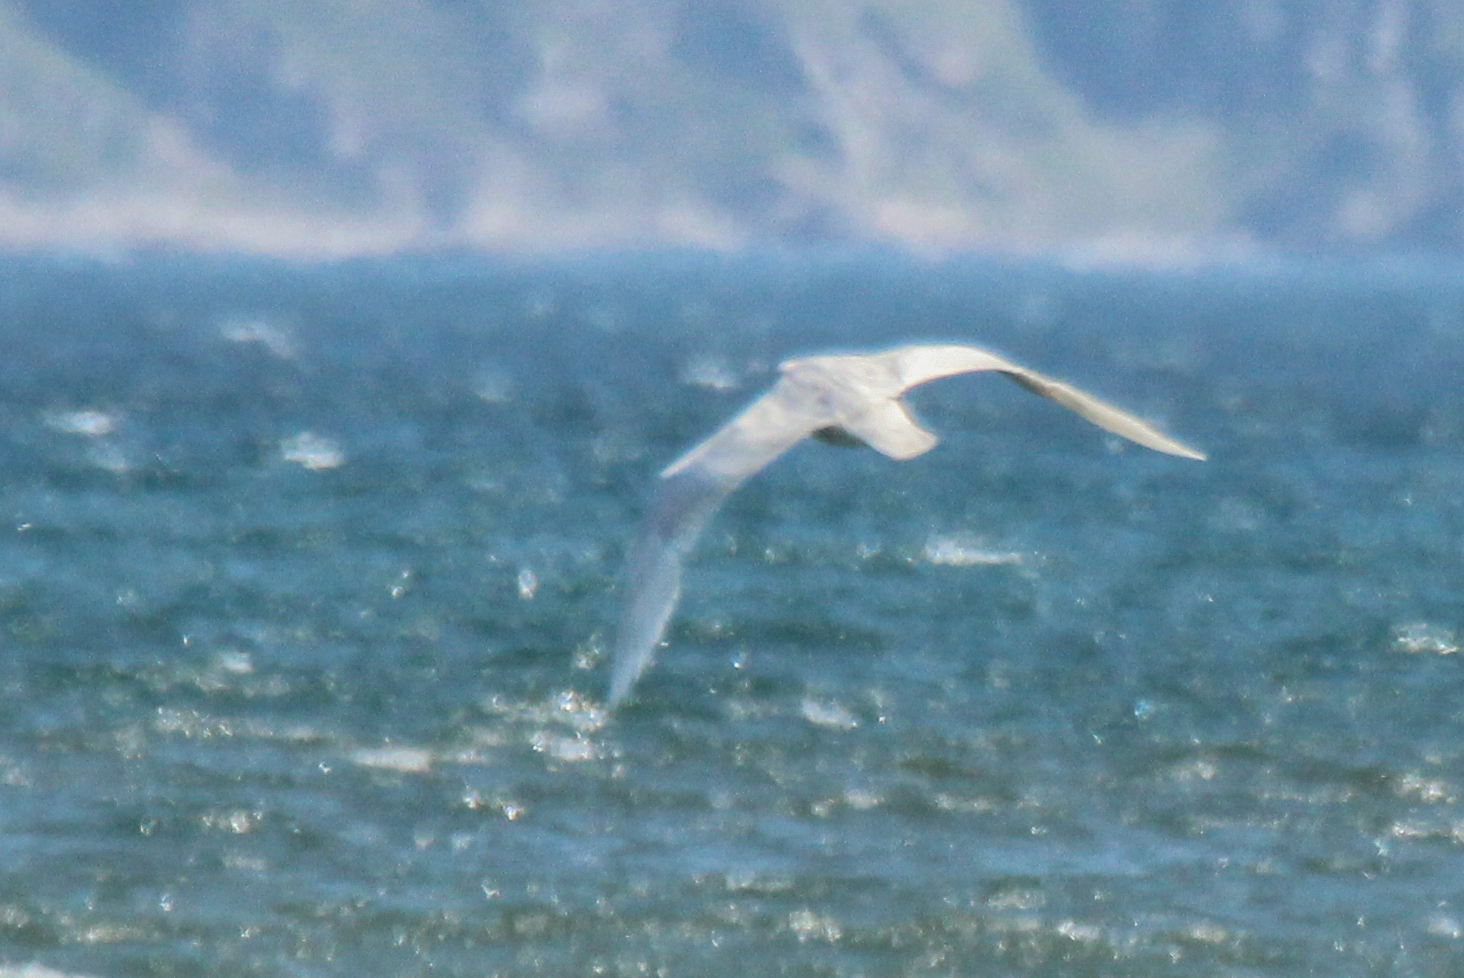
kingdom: Animalia
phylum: Chordata
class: Aves
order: Charadriiformes
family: Laridae
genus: Larus
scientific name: Larus hyperboreus
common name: Glaucous gull
